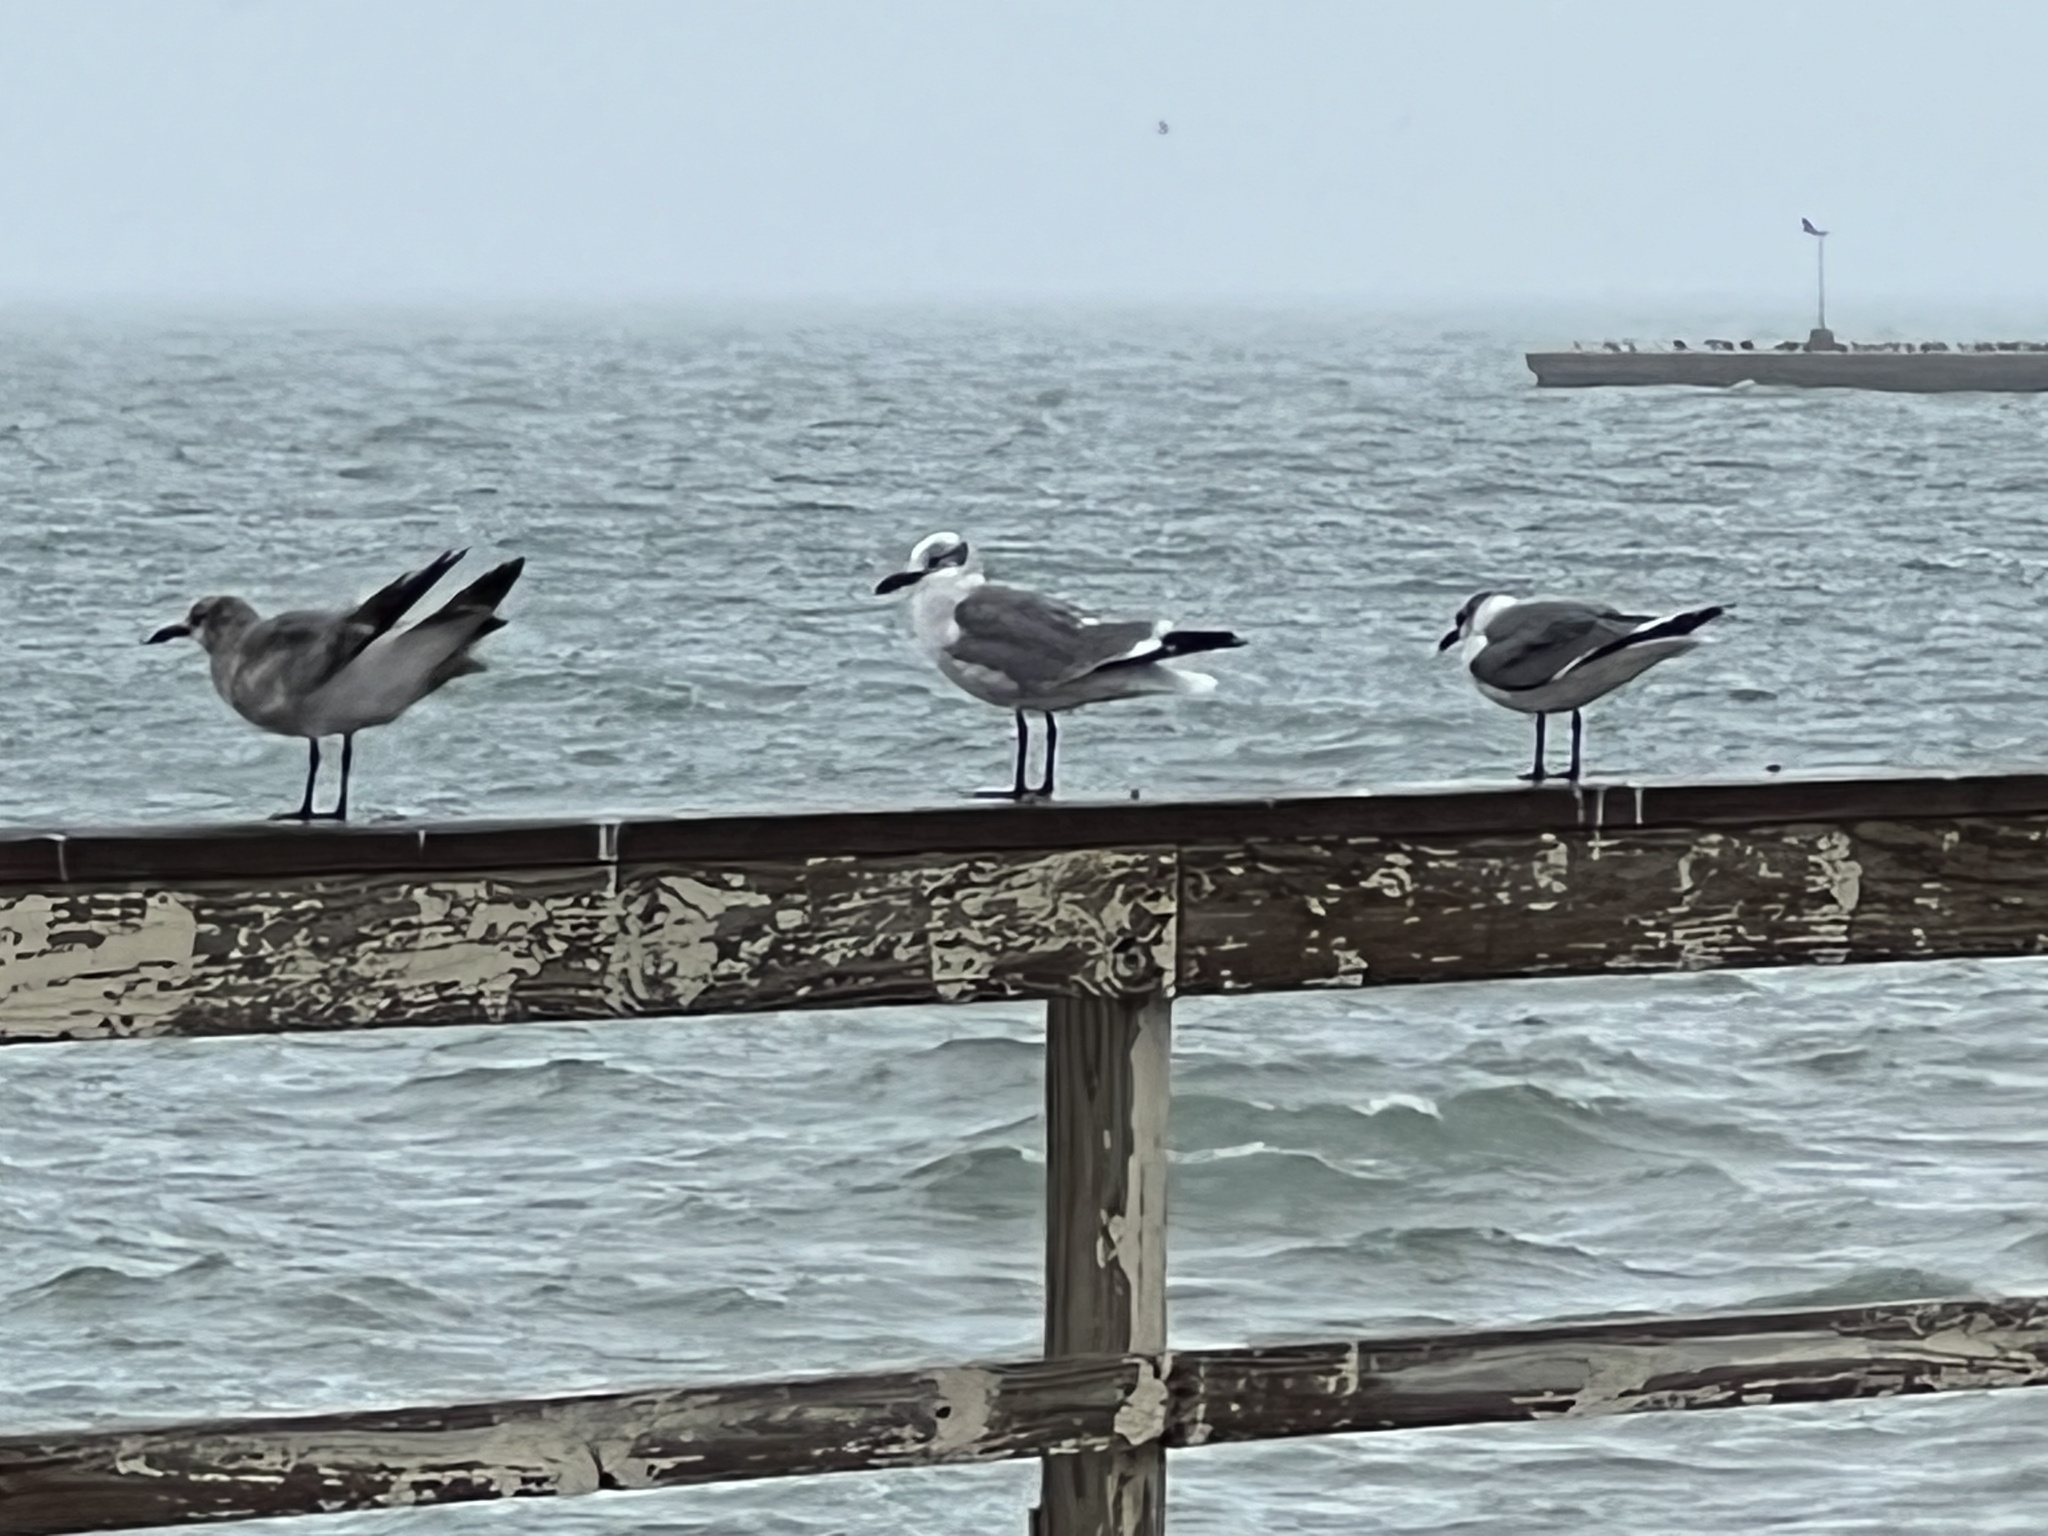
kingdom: Animalia
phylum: Chordata
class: Aves
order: Charadriiformes
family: Laridae
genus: Leucophaeus
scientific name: Leucophaeus atricilla
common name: Laughing gull
